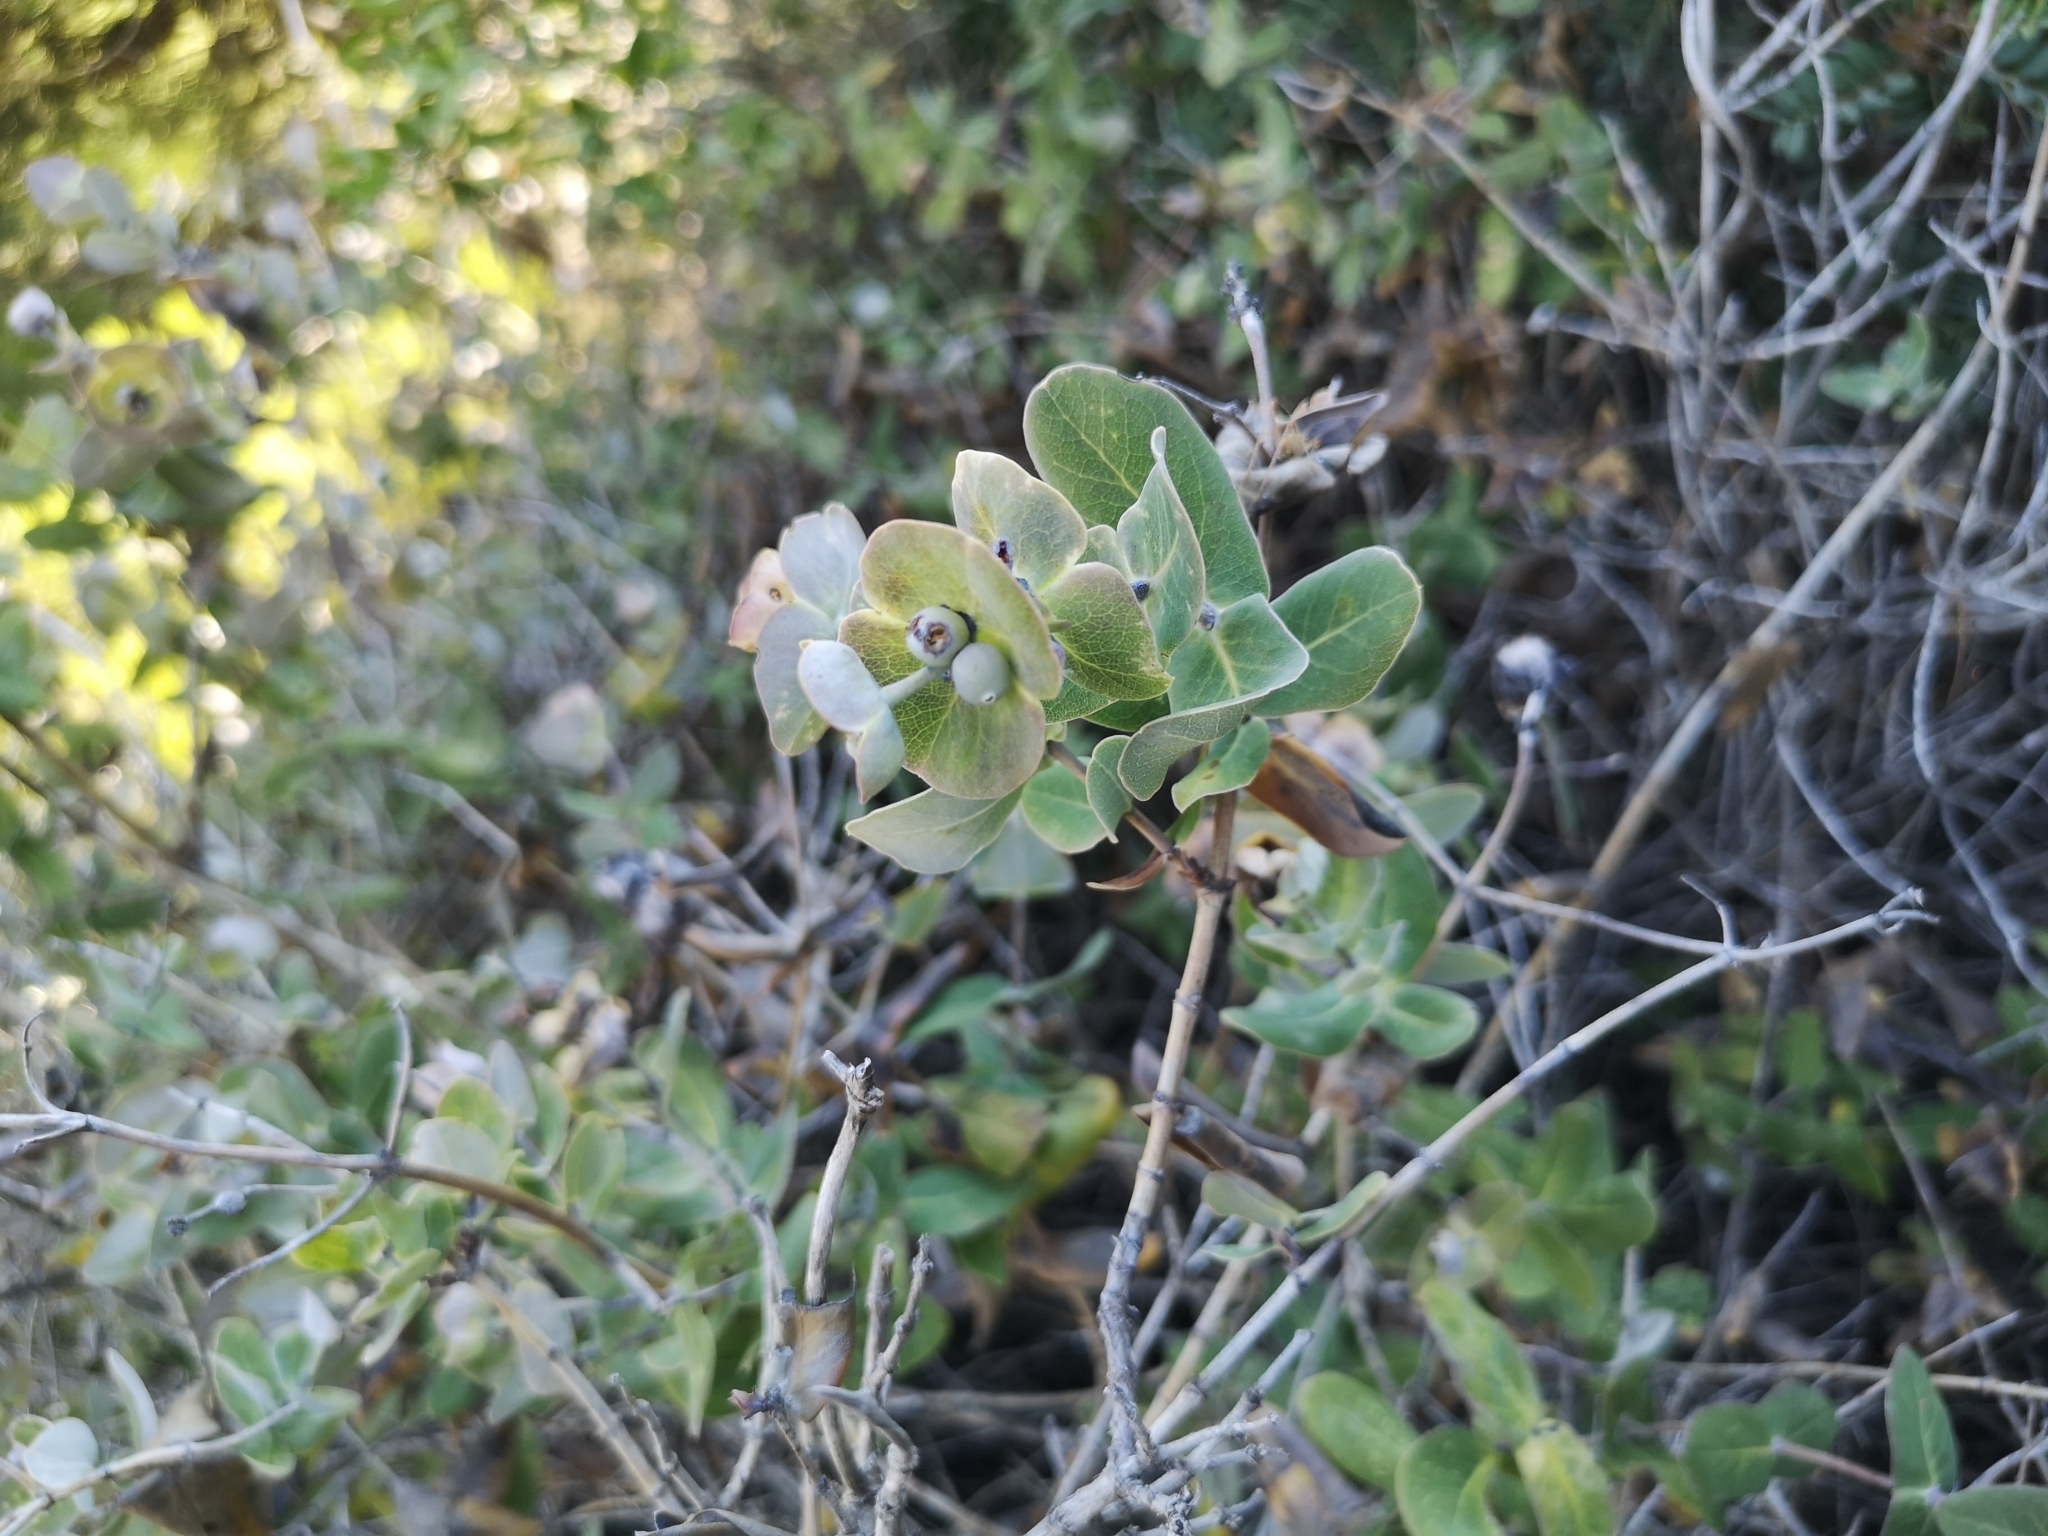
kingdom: Plantae
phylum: Tracheophyta
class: Magnoliopsida
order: Dipsacales
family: Caprifoliaceae
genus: Lonicera
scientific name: Lonicera implexa
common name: Minorca honeysuckle
